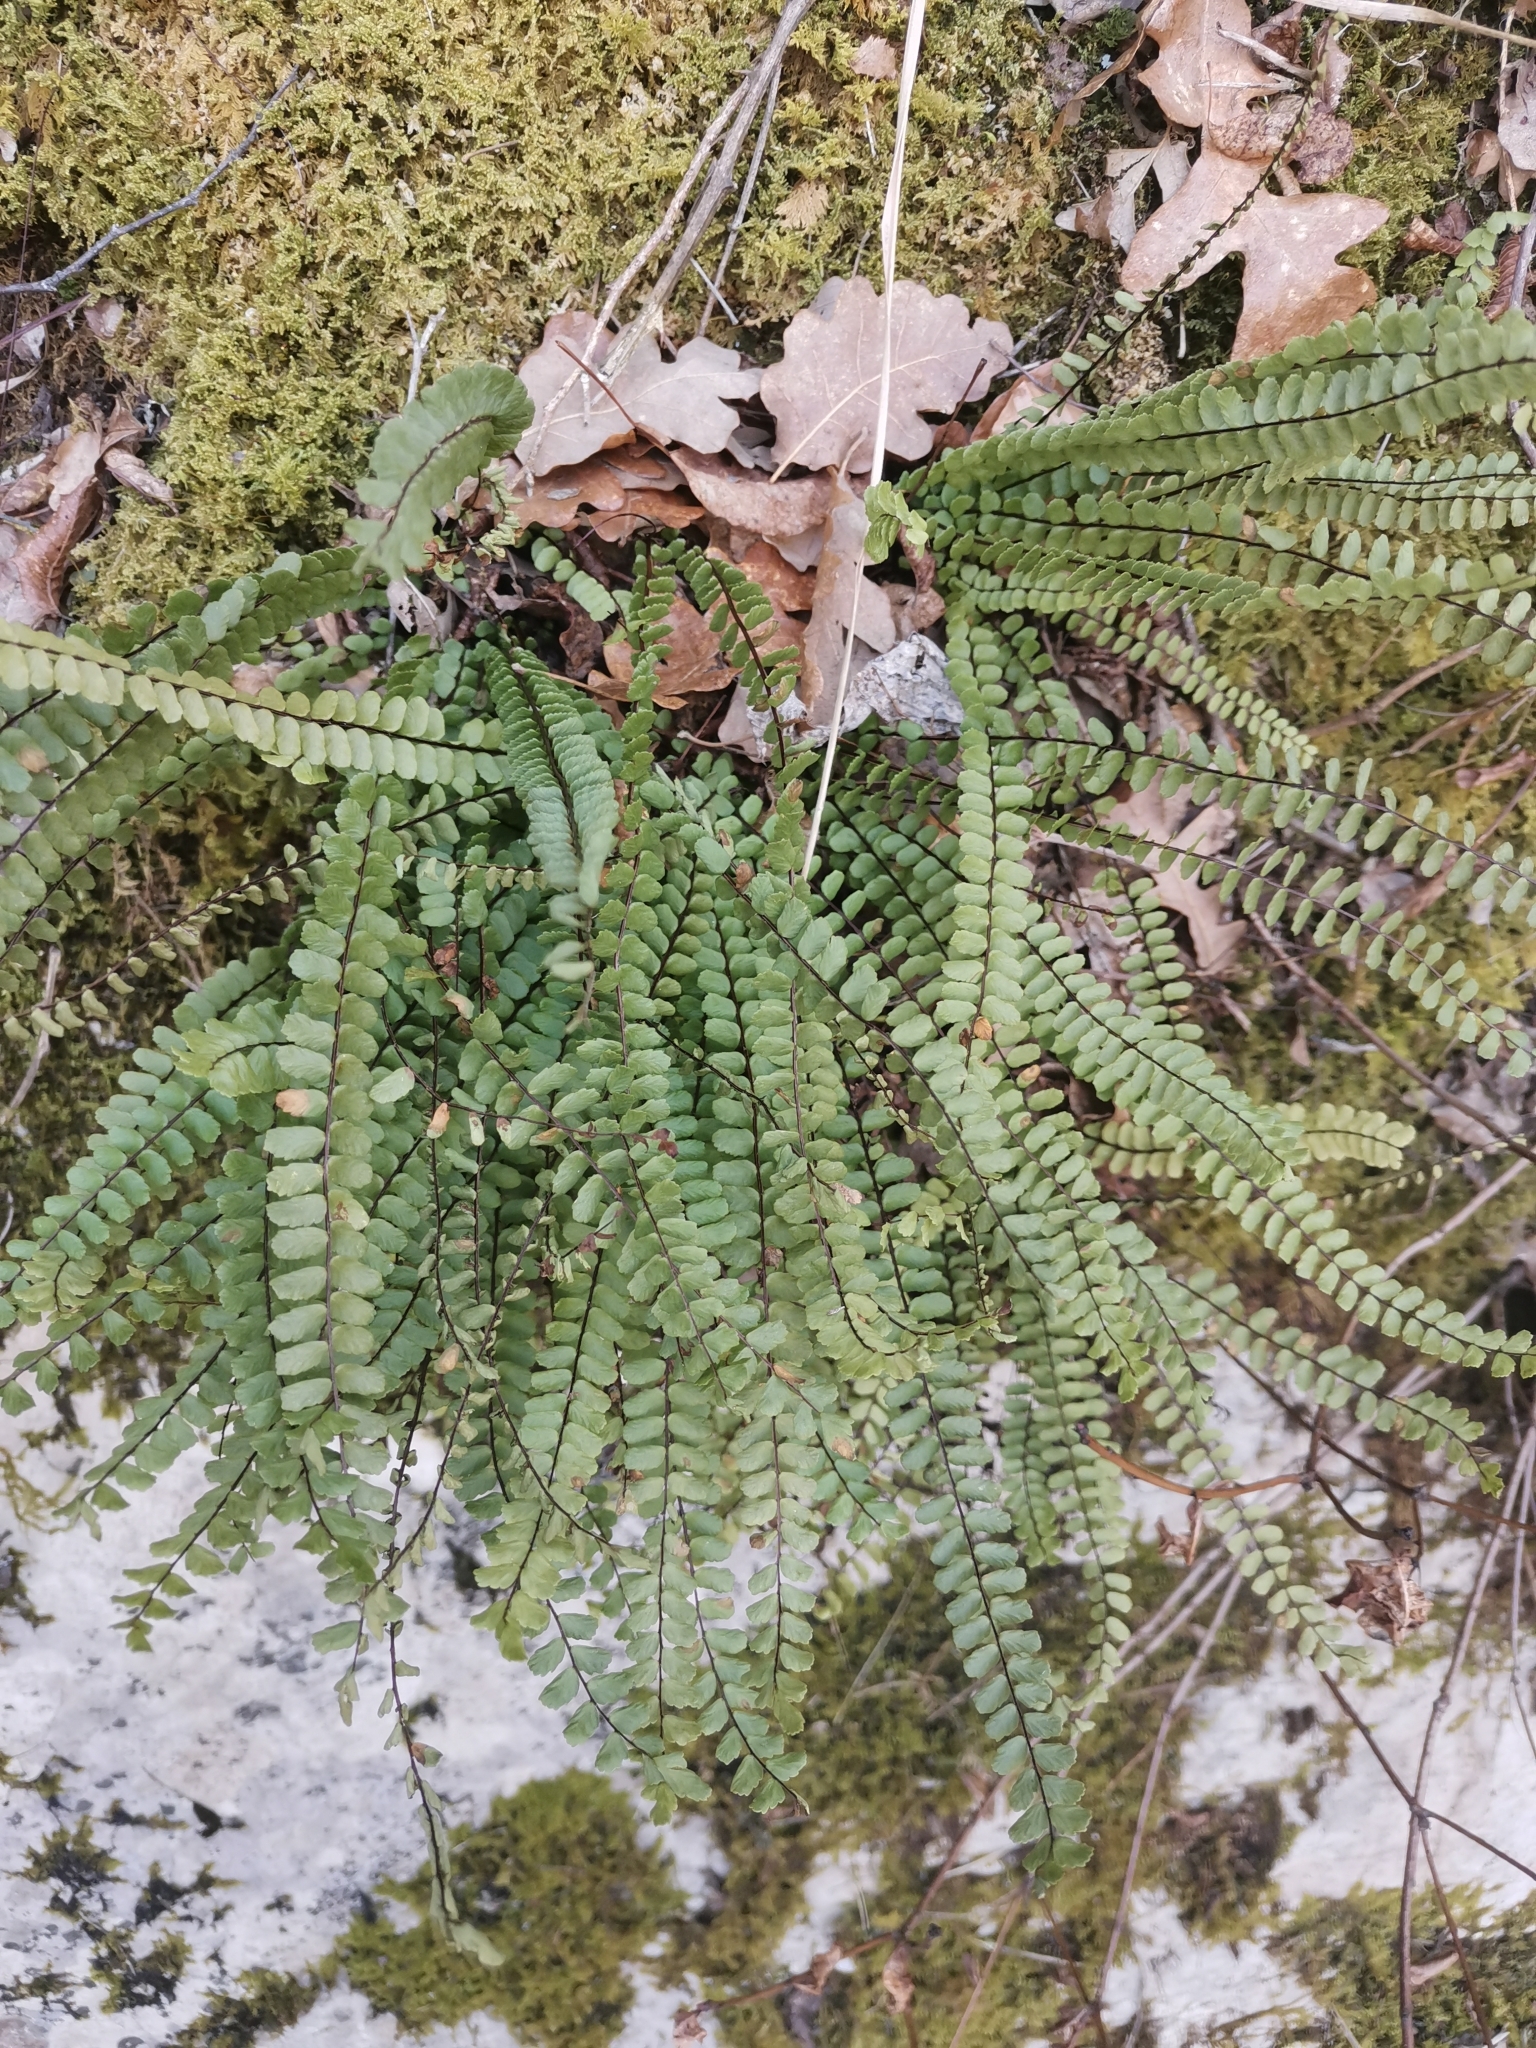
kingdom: Plantae
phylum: Tracheophyta
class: Polypodiopsida
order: Polypodiales
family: Aspleniaceae
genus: Asplenium
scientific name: Asplenium trichomanes
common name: Maidenhair spleenwort
